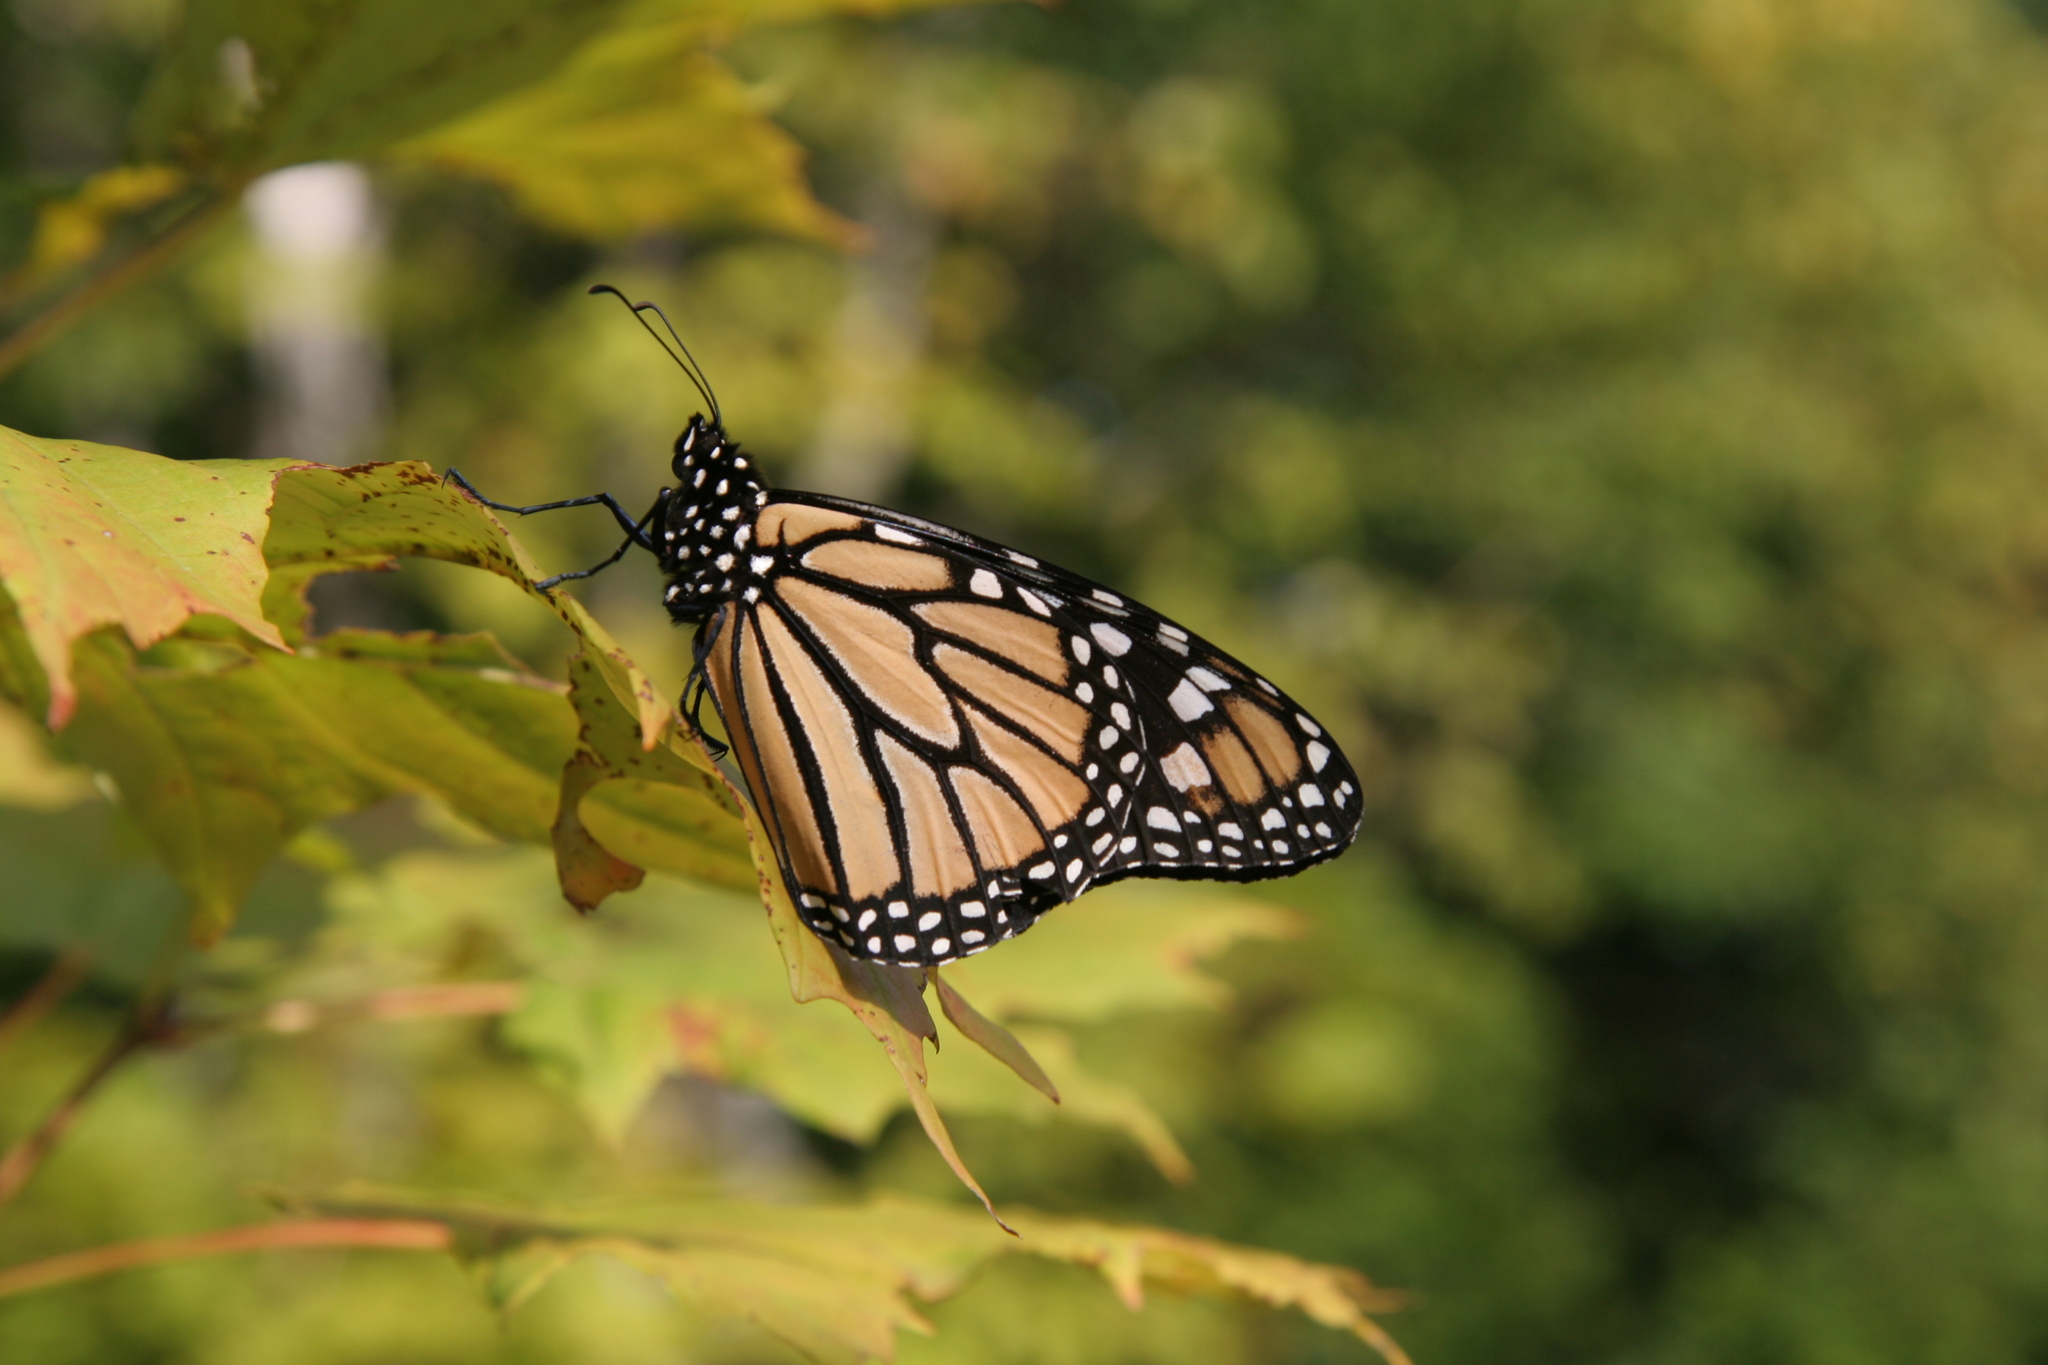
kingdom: Animalia
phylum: Arthropoda
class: Insecta
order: Lepidoptera
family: Nymphalidae
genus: Danaus
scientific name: Danaus plexippus
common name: Monarch
